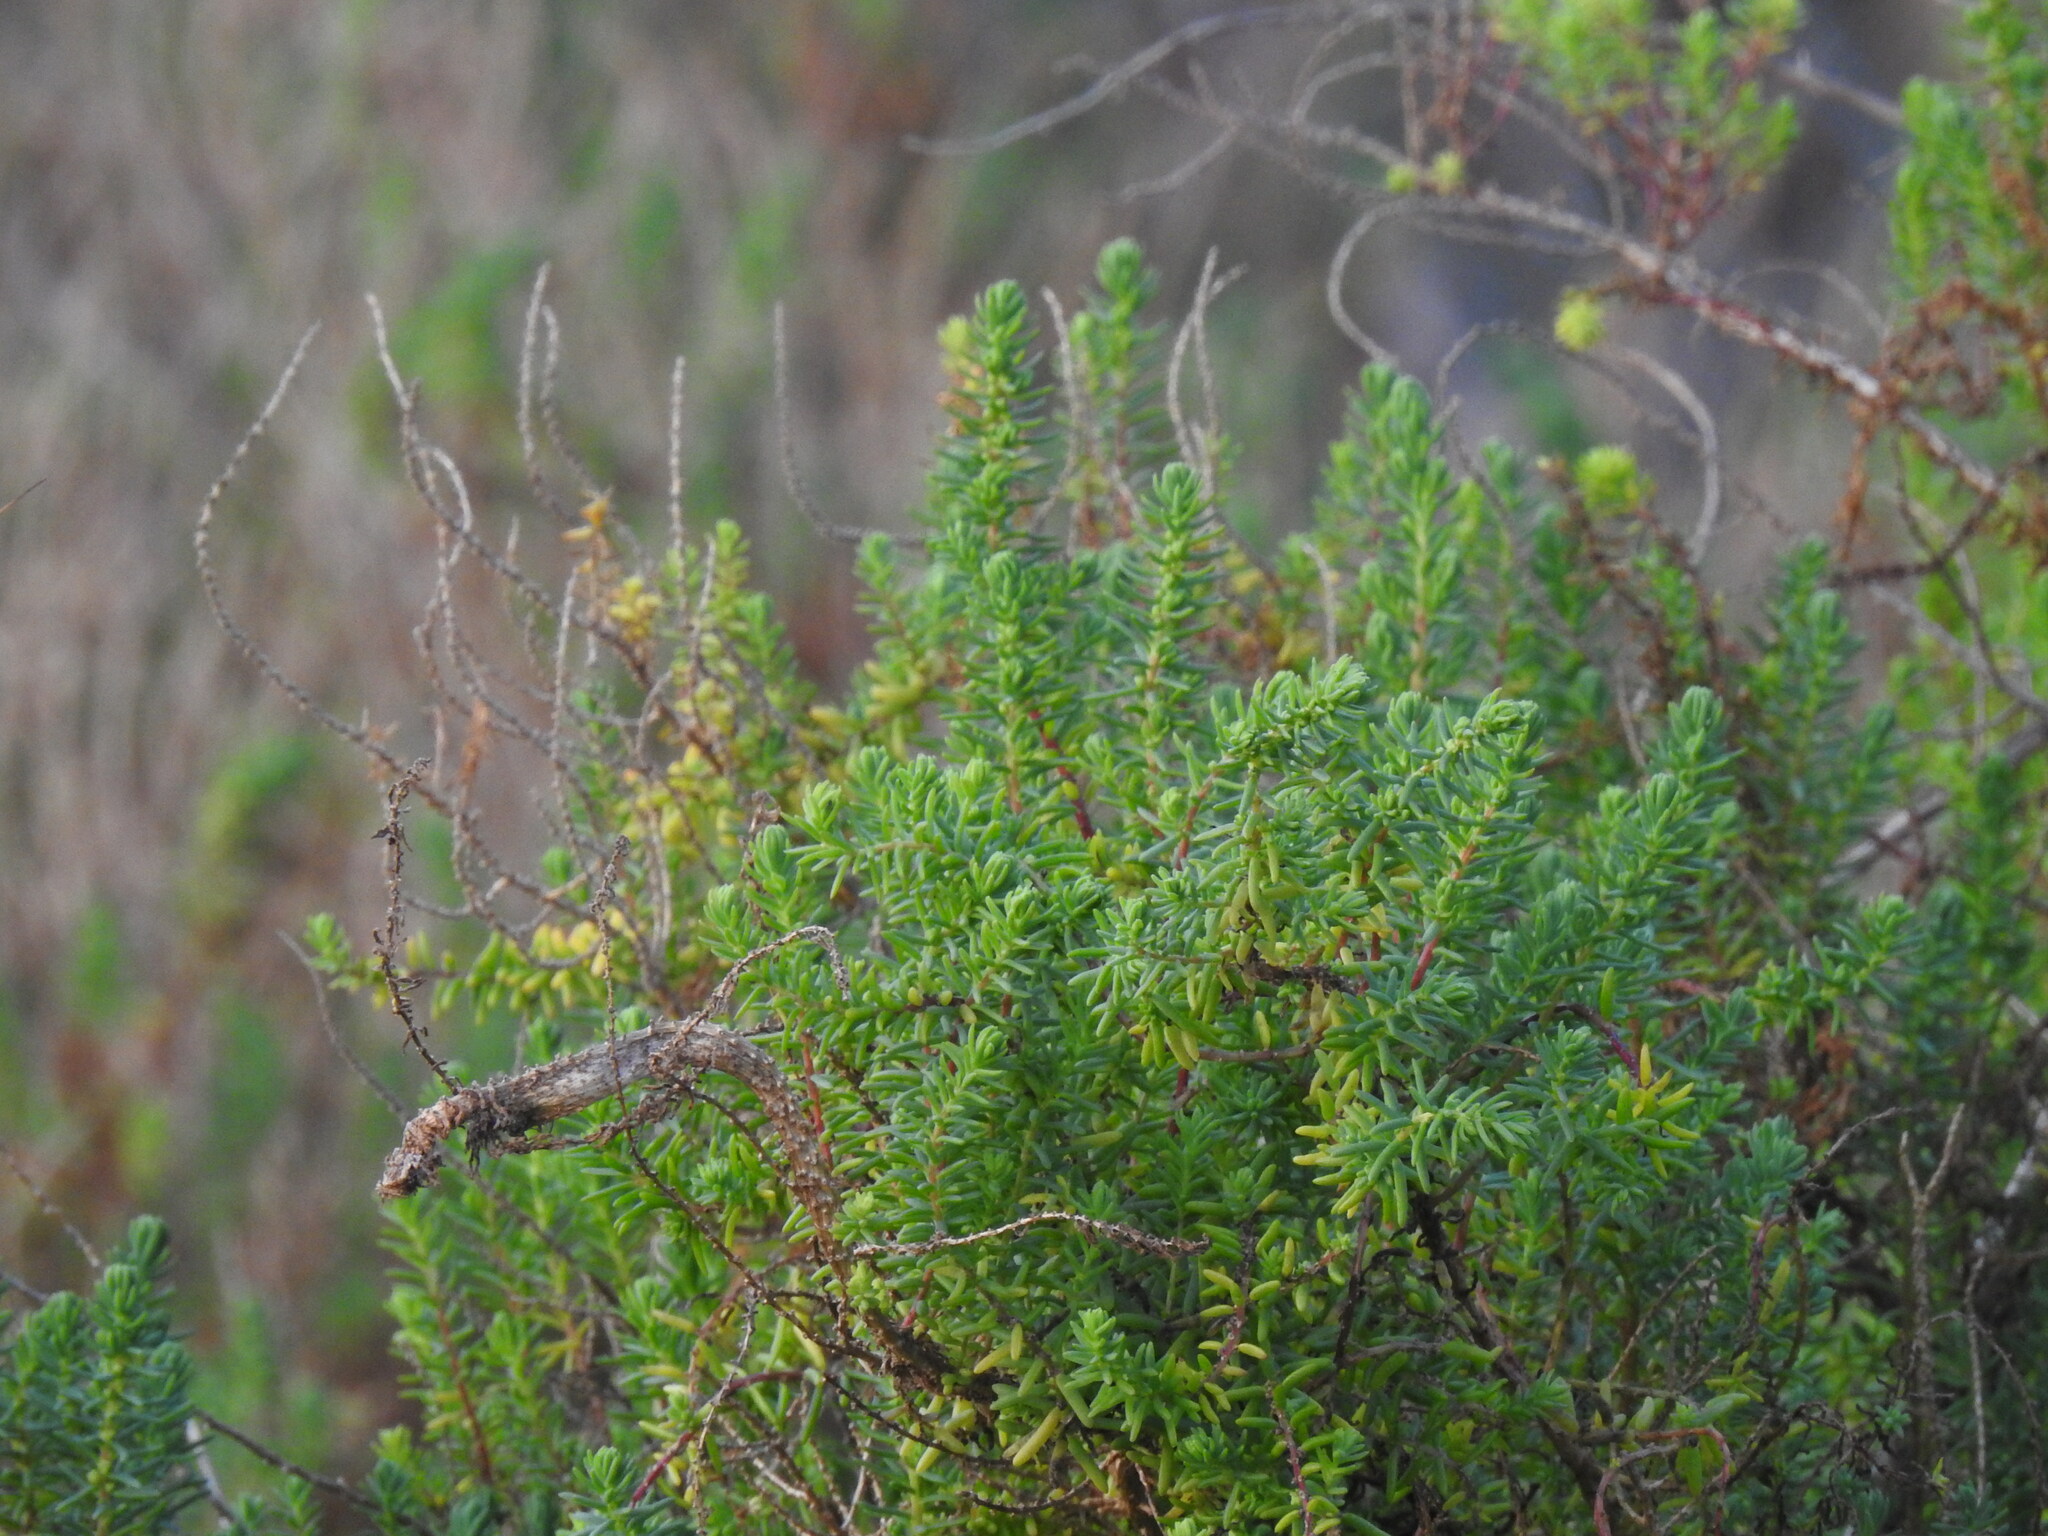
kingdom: Plantae
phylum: Tracheophyta
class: Magnoliopsida
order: Caryophyllales
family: Amaranthaceae
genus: Suaeda
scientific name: Suaeda vera
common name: Shrubby sea-blite
